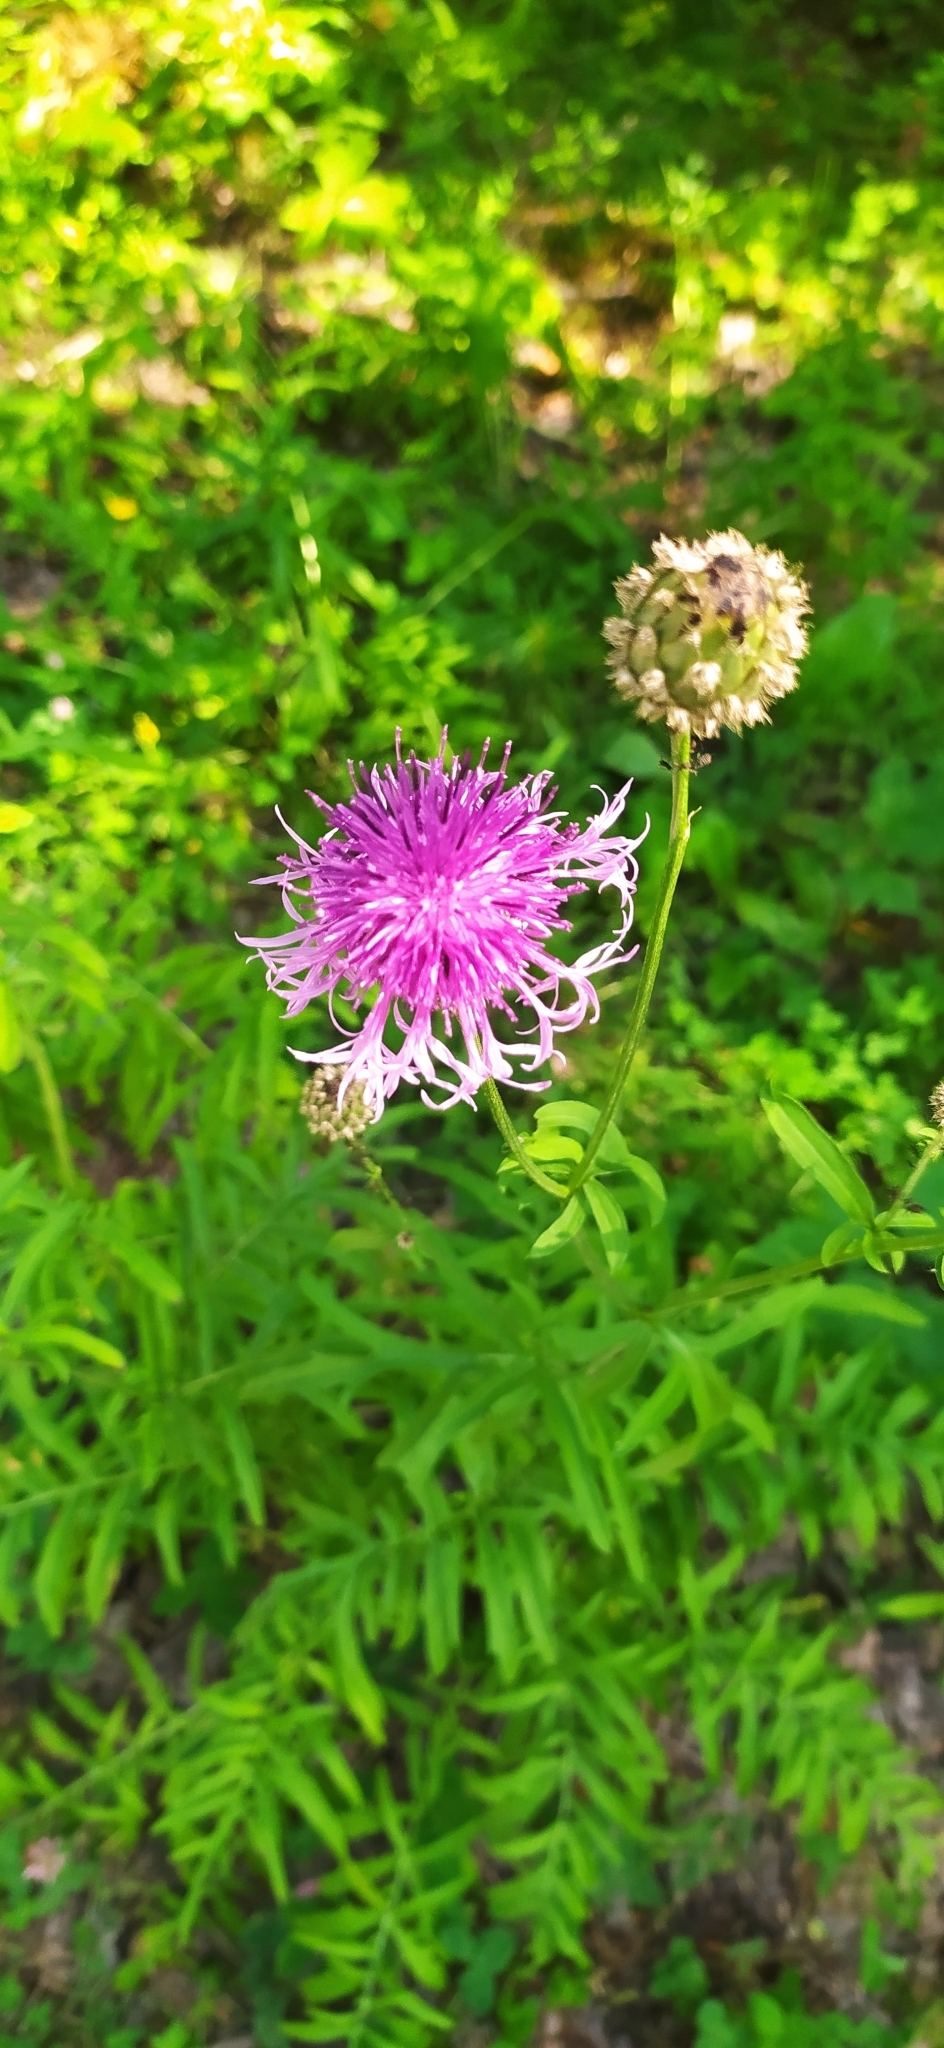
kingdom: Plantae
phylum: Tracheophyta
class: Magnoliopsida
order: Asterales
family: Asteraceae
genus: Centaurea
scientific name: Centaurea scabiosa
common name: Greater knapweed
